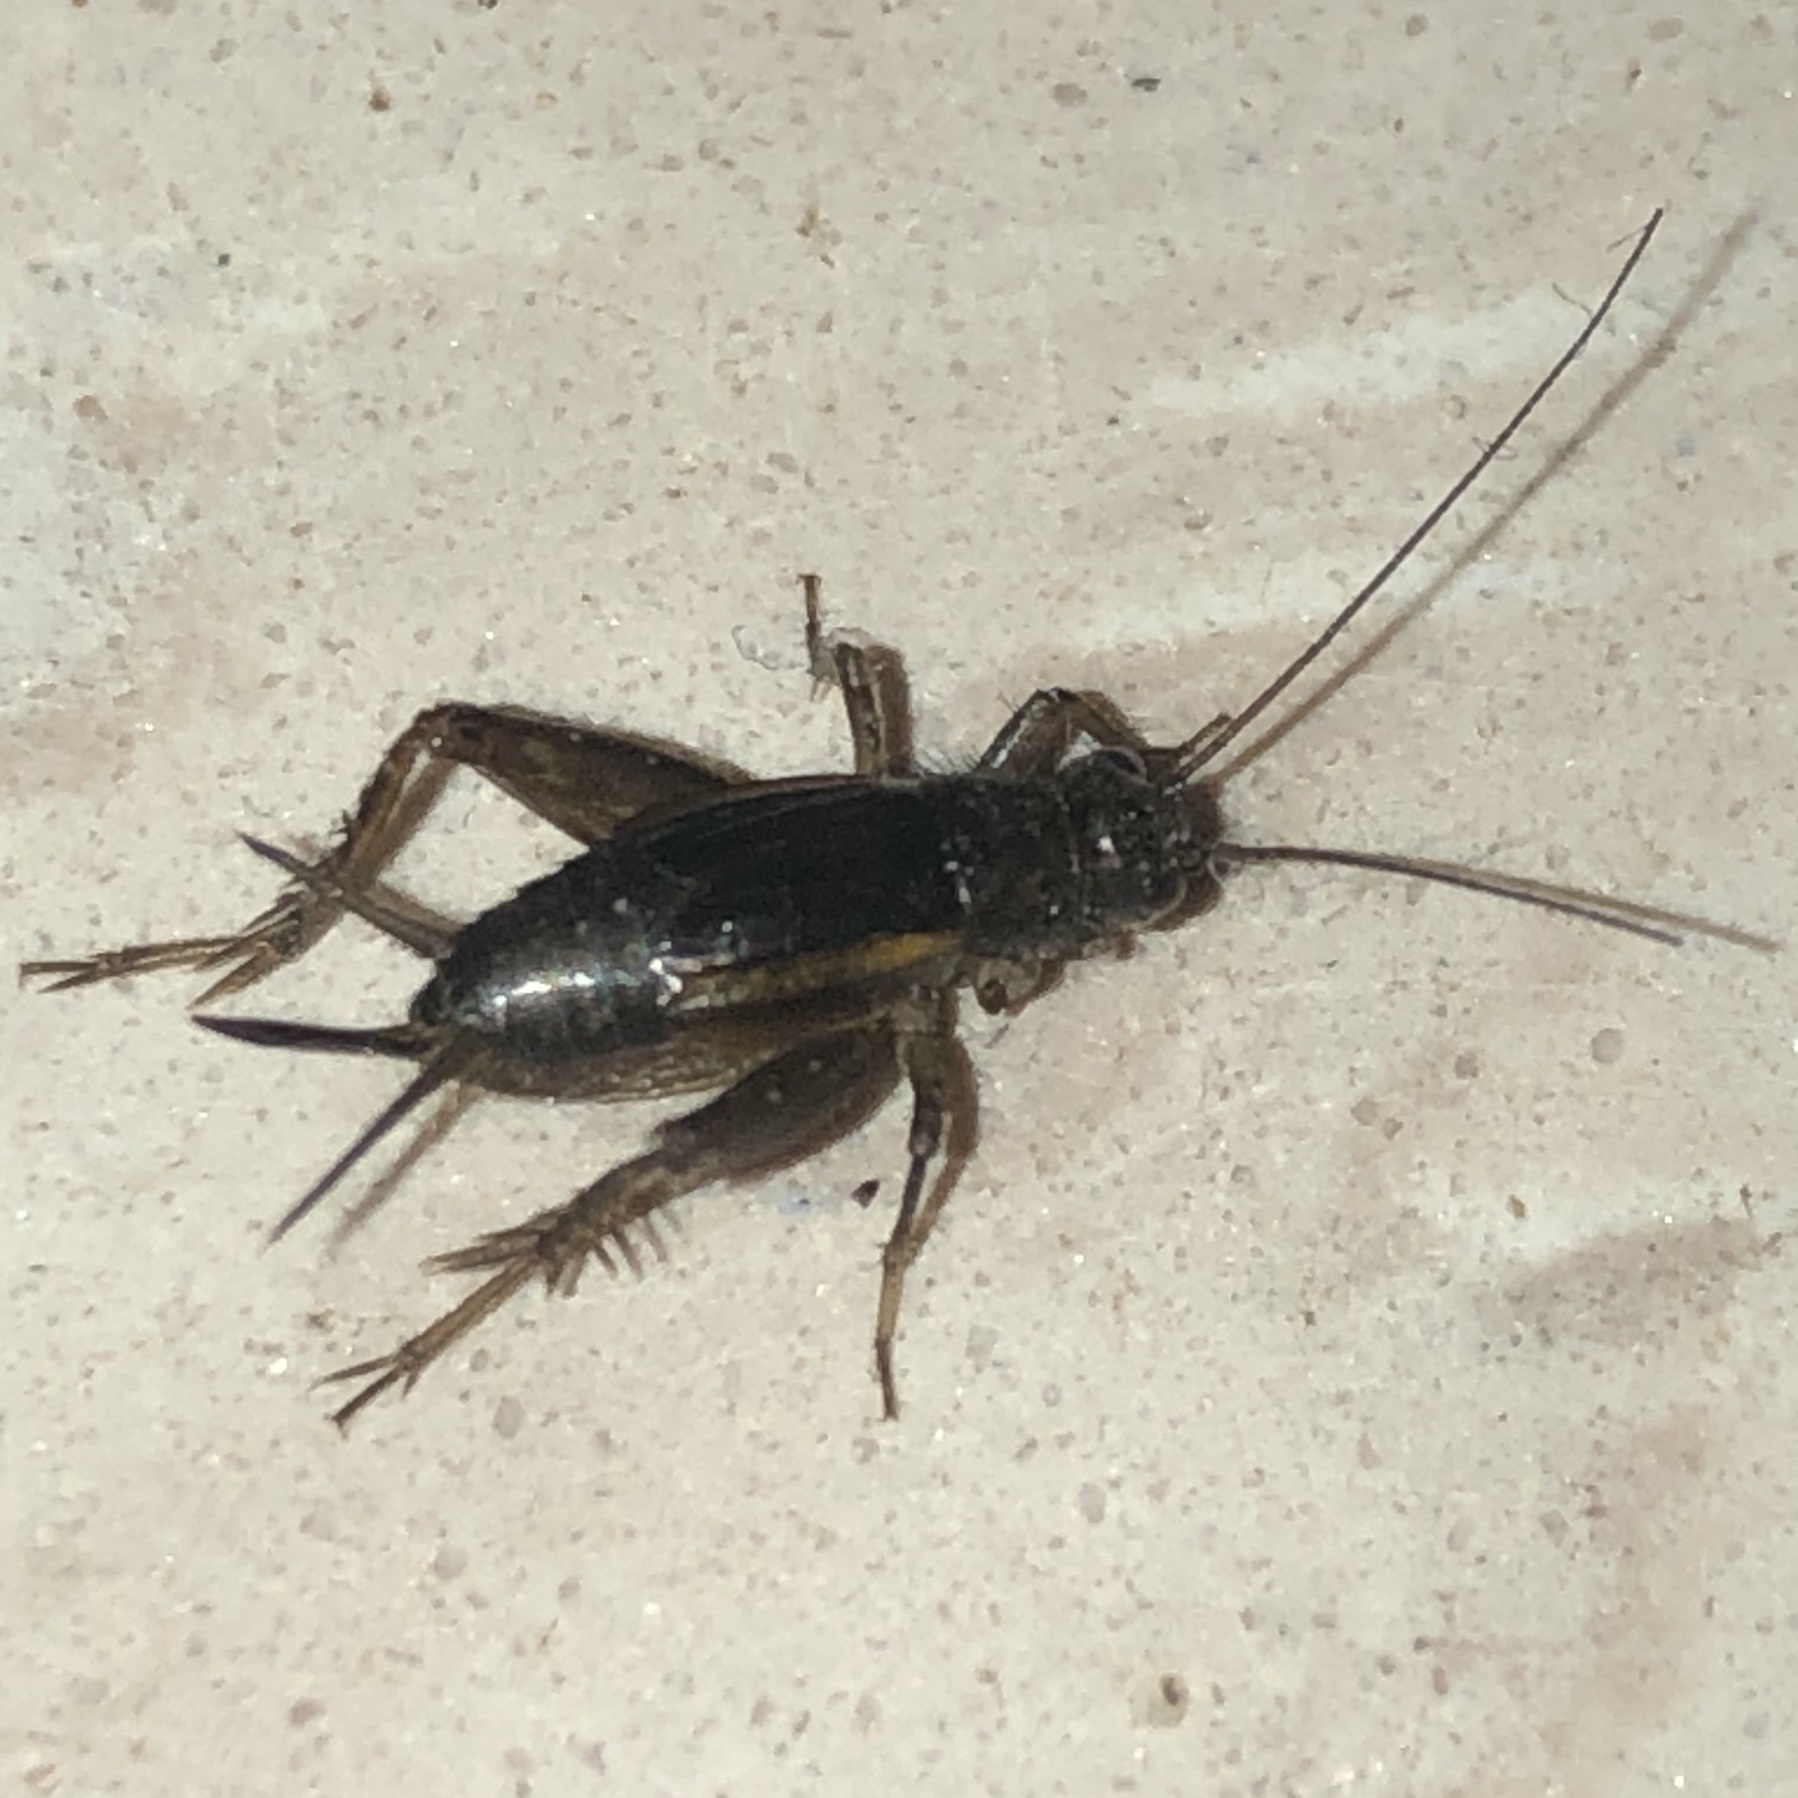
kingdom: Animalia
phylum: Arthropoda
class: Insecta
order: Orthoptera
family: Trigonidiidae
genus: Eunemobius
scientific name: Eunemobius carolinus
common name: Carolina ground cricket
